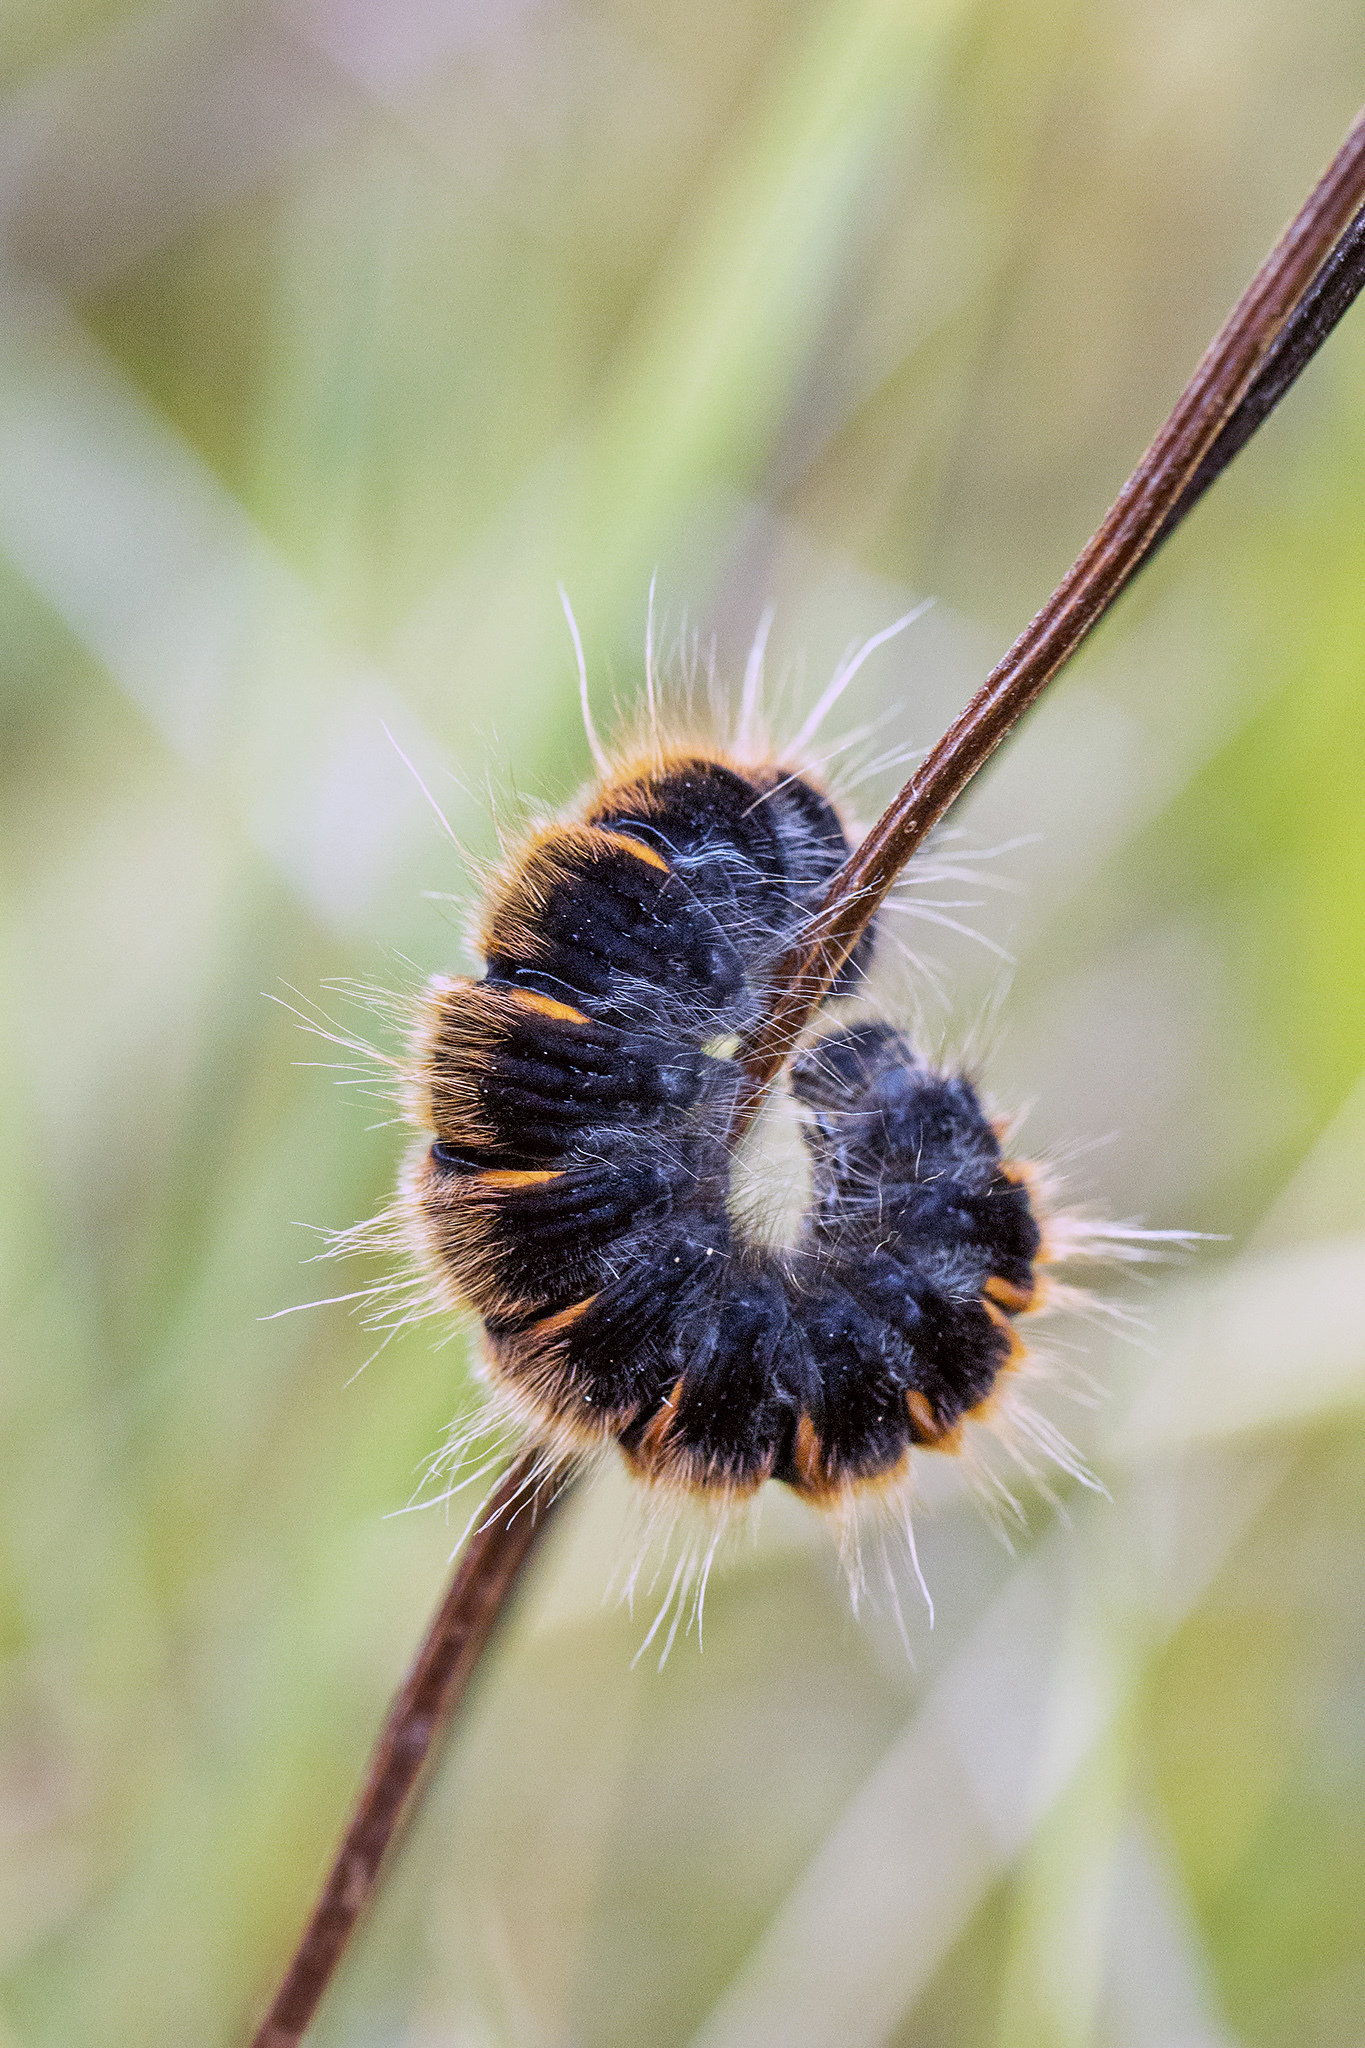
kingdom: Animalia
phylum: Arthropoda
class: Insecta
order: Lepidoptera
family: Lasiocampidae
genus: Macrothylacia
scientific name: Macrothylacia rubi
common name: Fox moth
